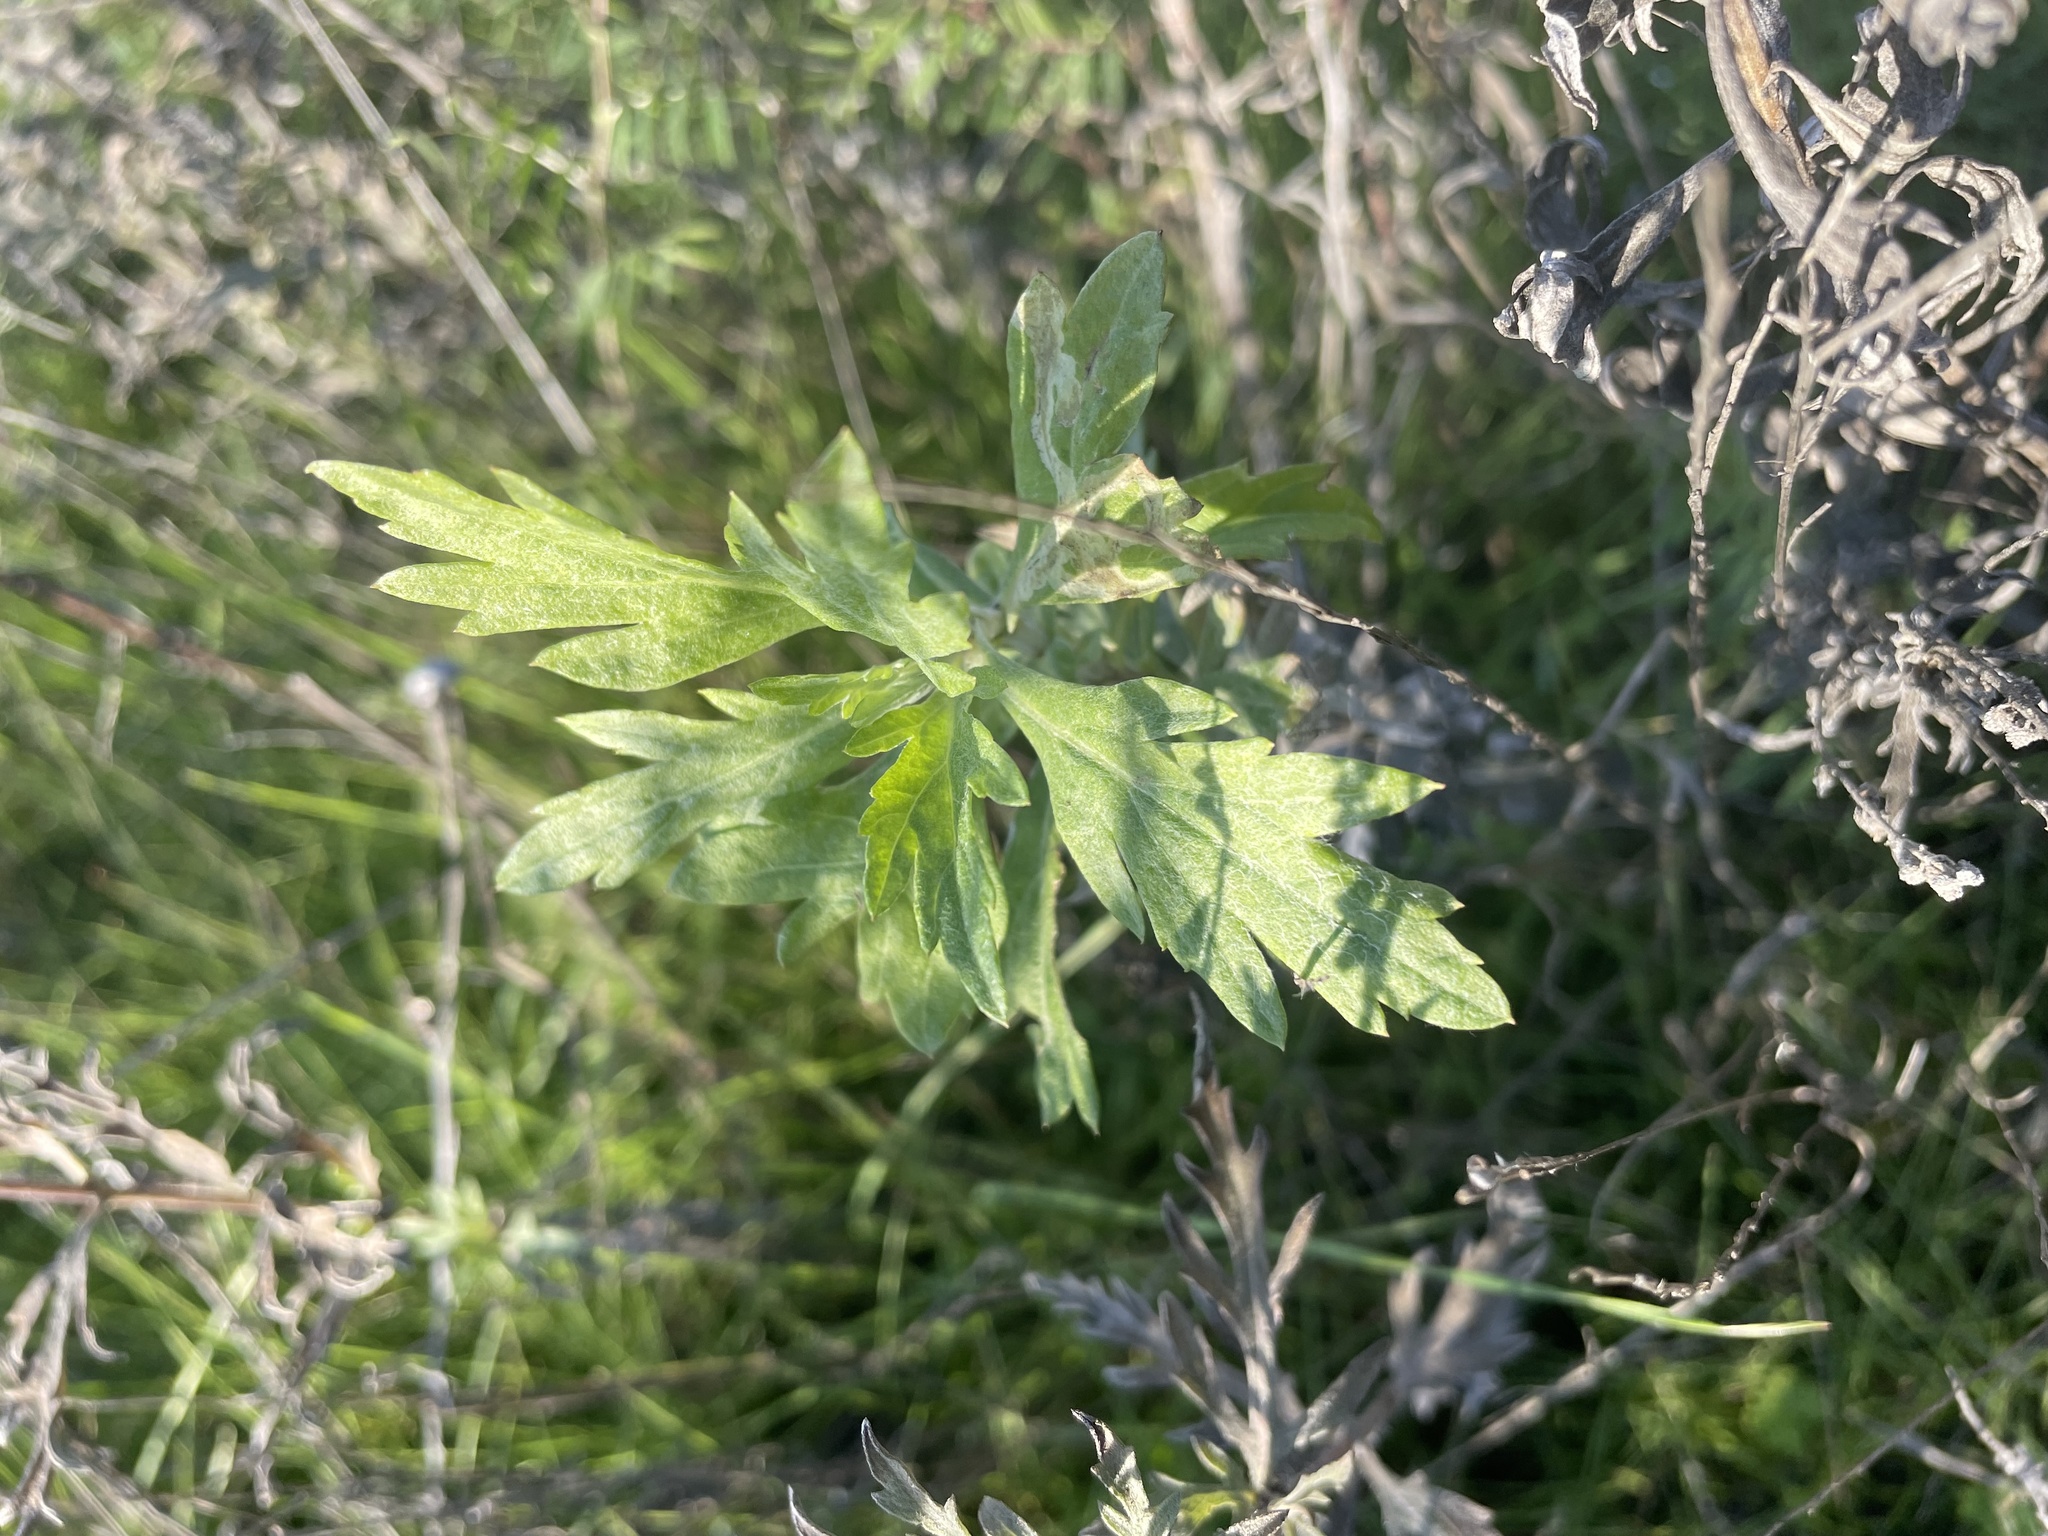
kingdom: Plantae
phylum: Tracheophyta
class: Magnoliopsida
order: Asterales
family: Asteraceae
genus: Artemisia
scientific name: Artemisia douglasiana
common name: Northwest mugwort
